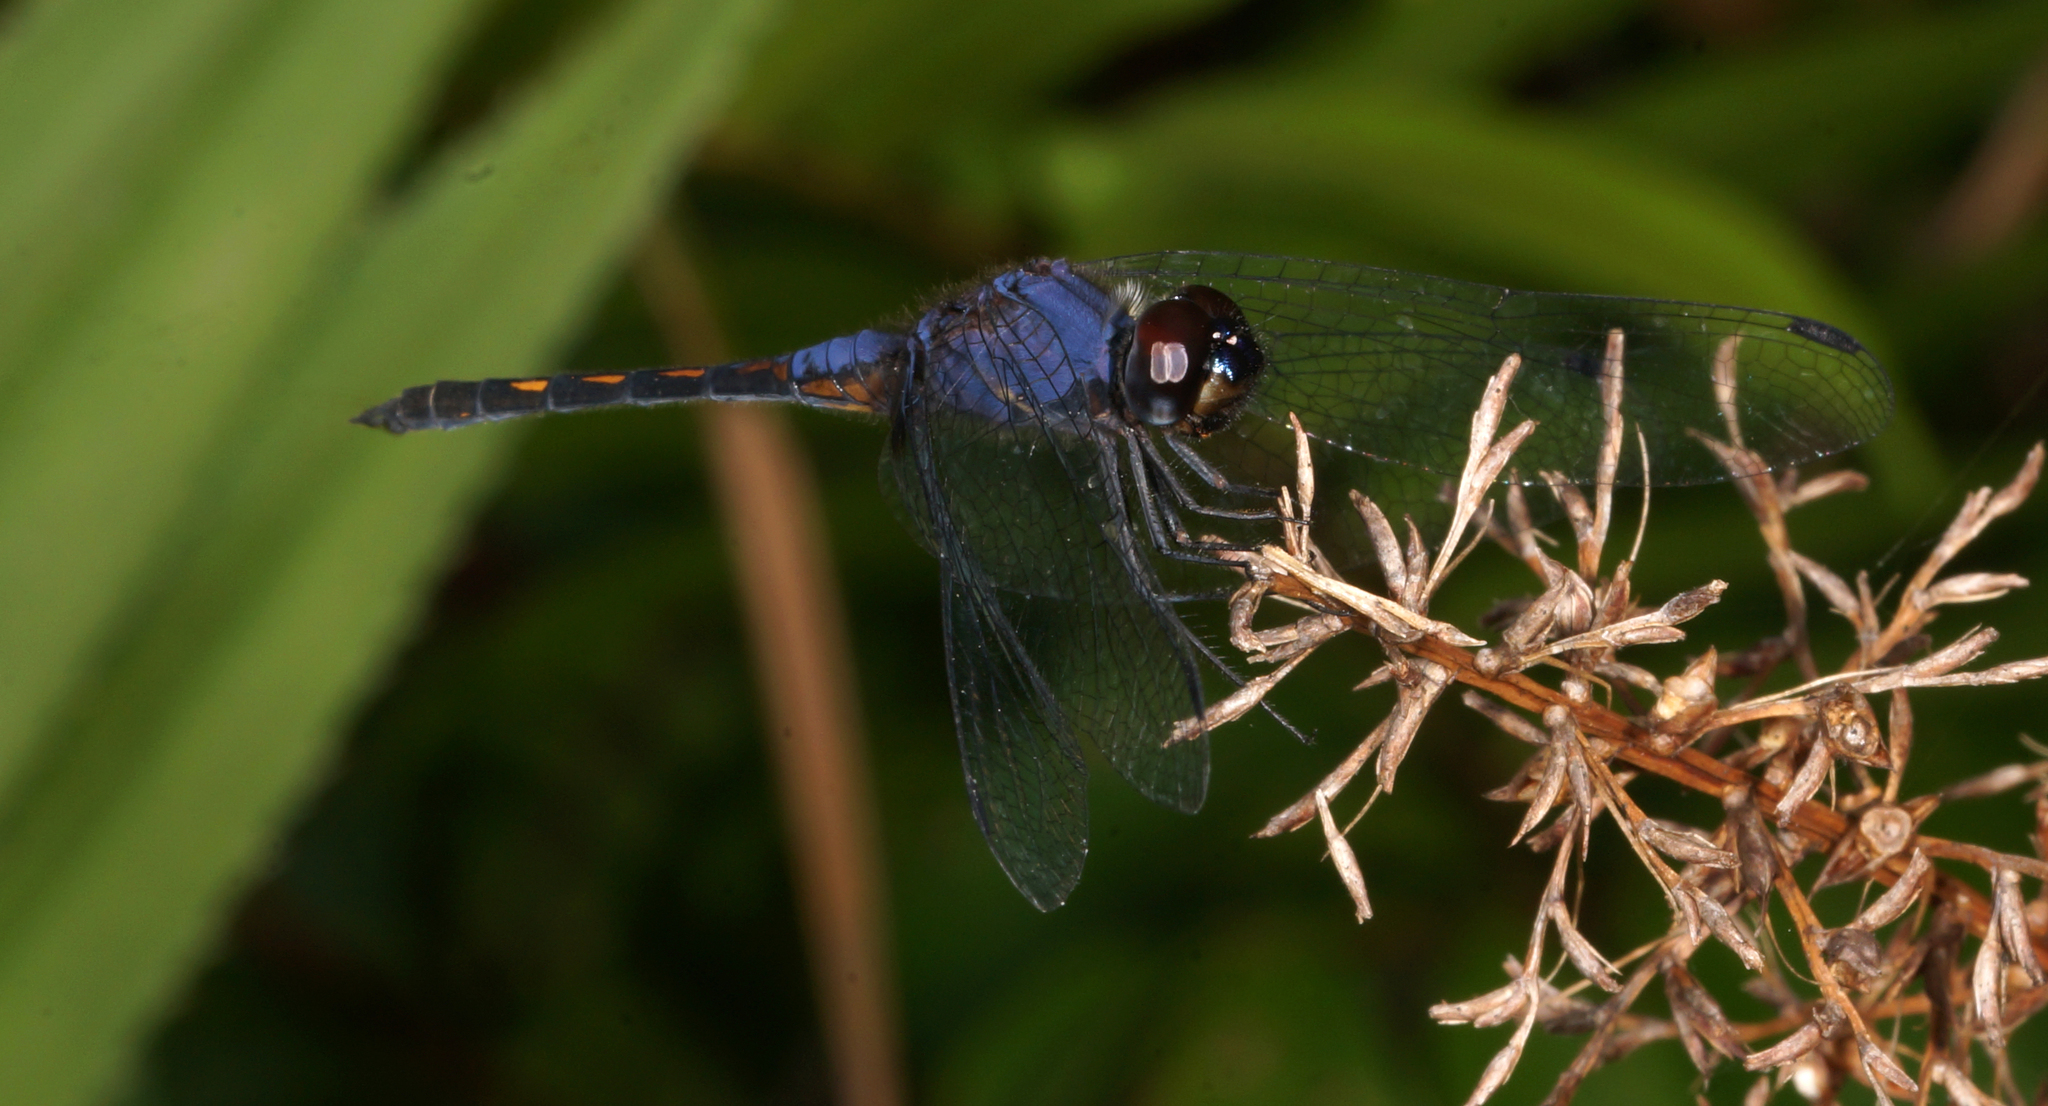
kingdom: Animalia
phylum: Arthropoda
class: Insecta
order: Odonata
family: Libellulidae
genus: Trithemis
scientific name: Trithemis festiva
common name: Indigo dropwing
